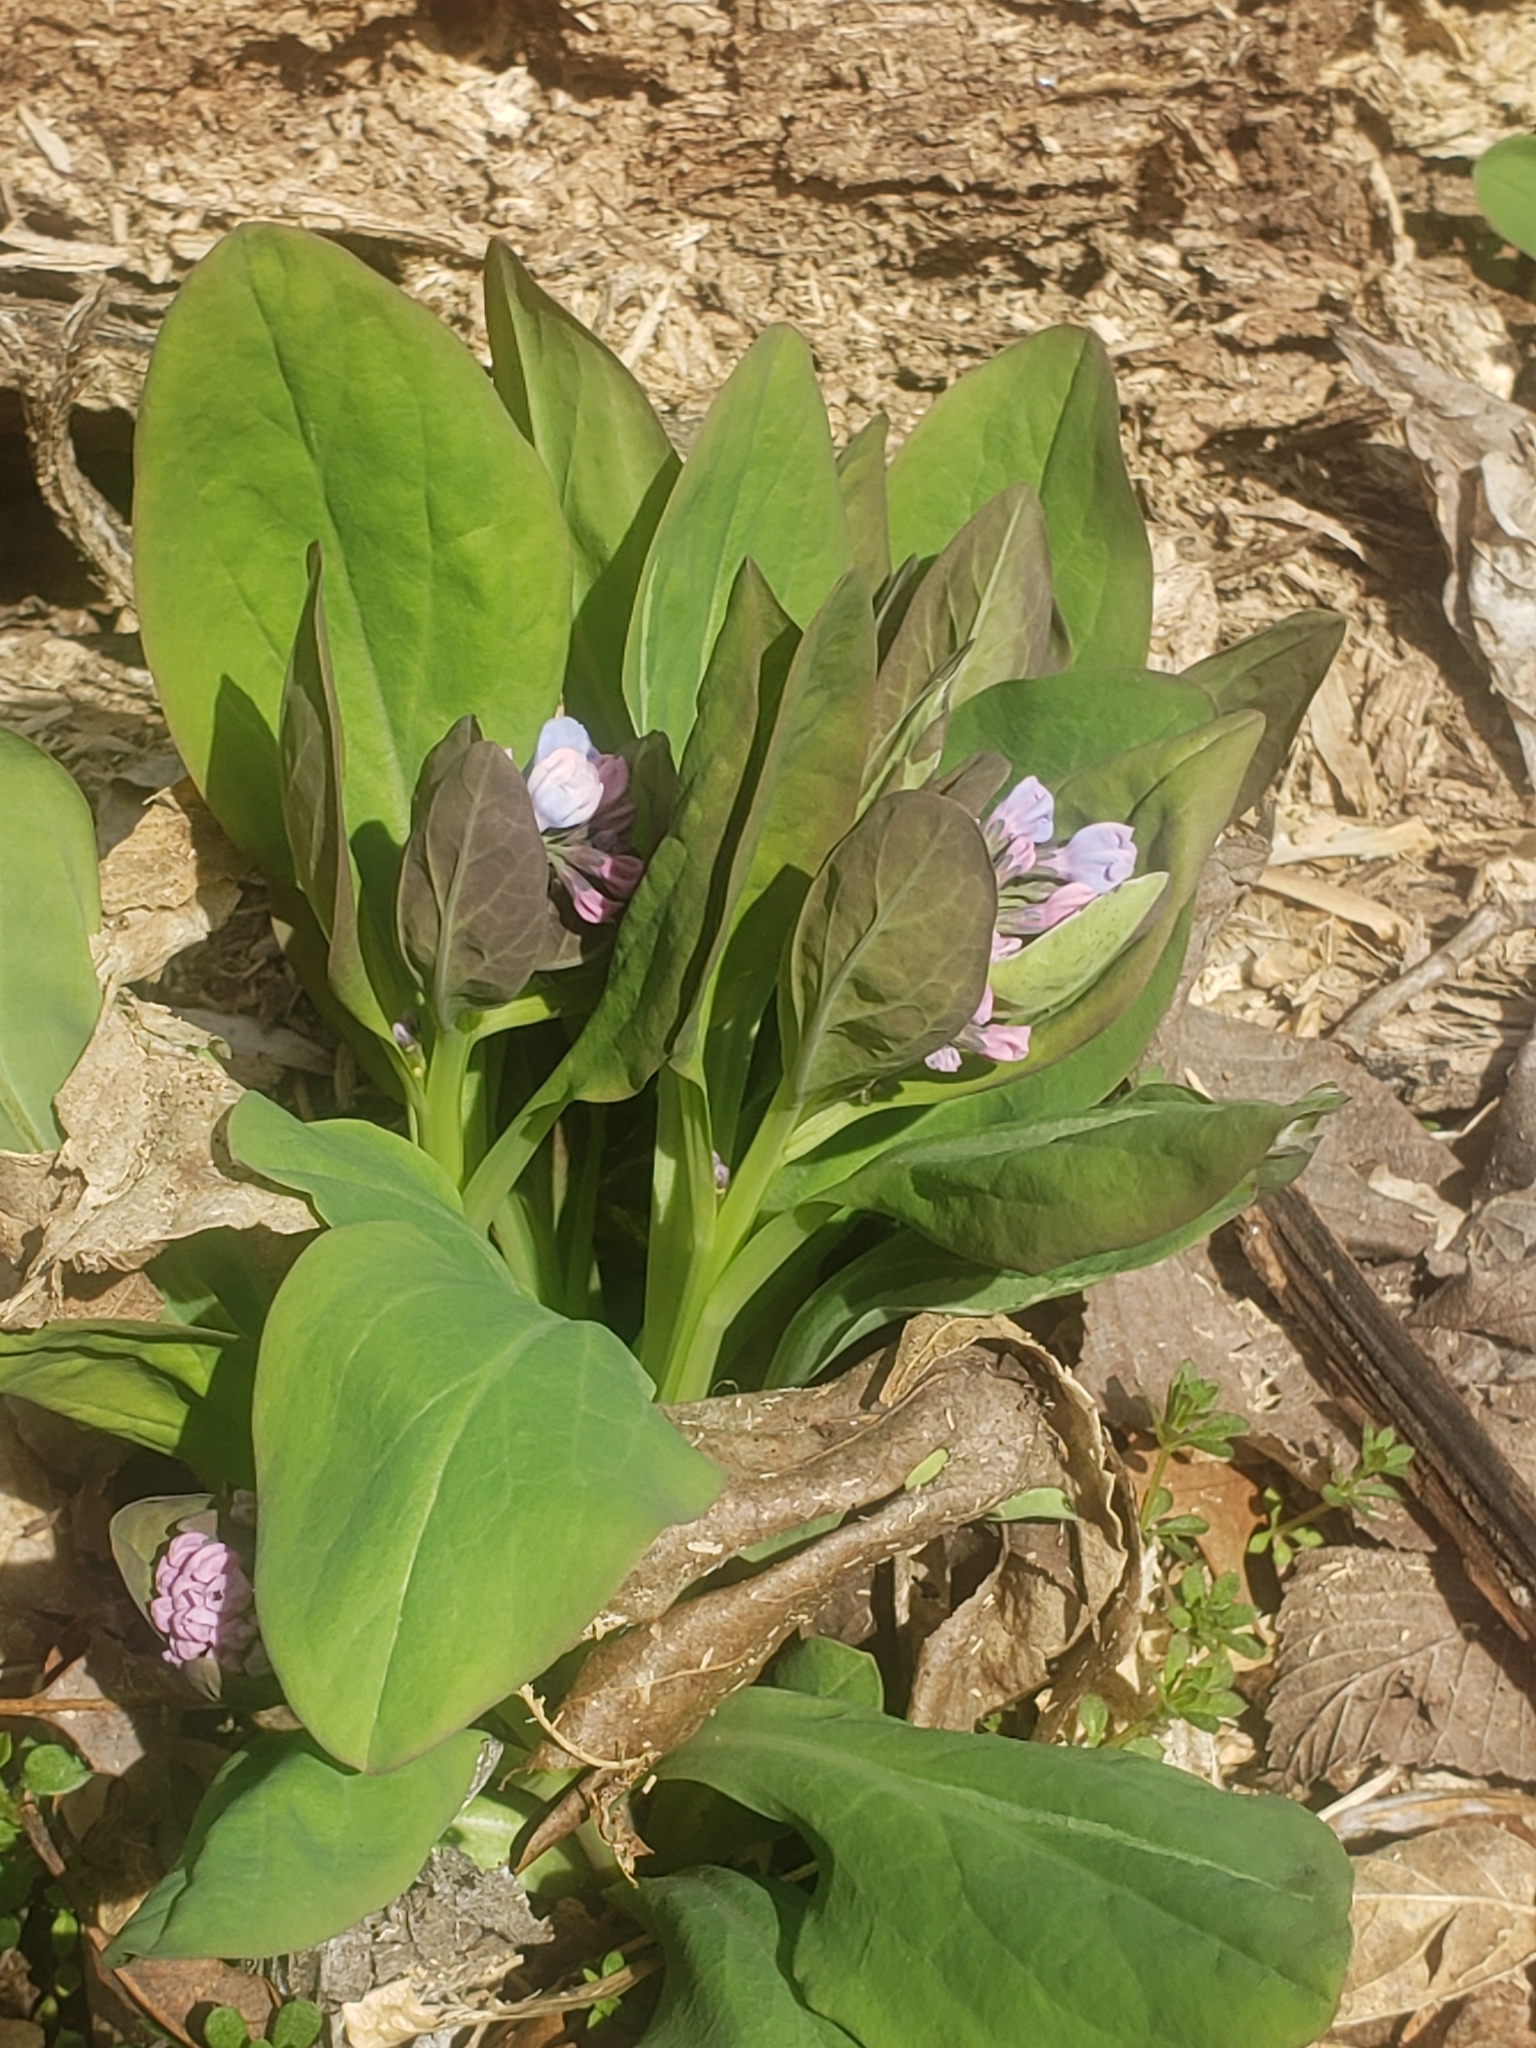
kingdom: Plantae
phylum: Tracheophyta
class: Magnoliopsida
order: Boraginales
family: Boraginaceae
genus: Mertensia
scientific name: Mertensia virginica
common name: Virginia bluebells
